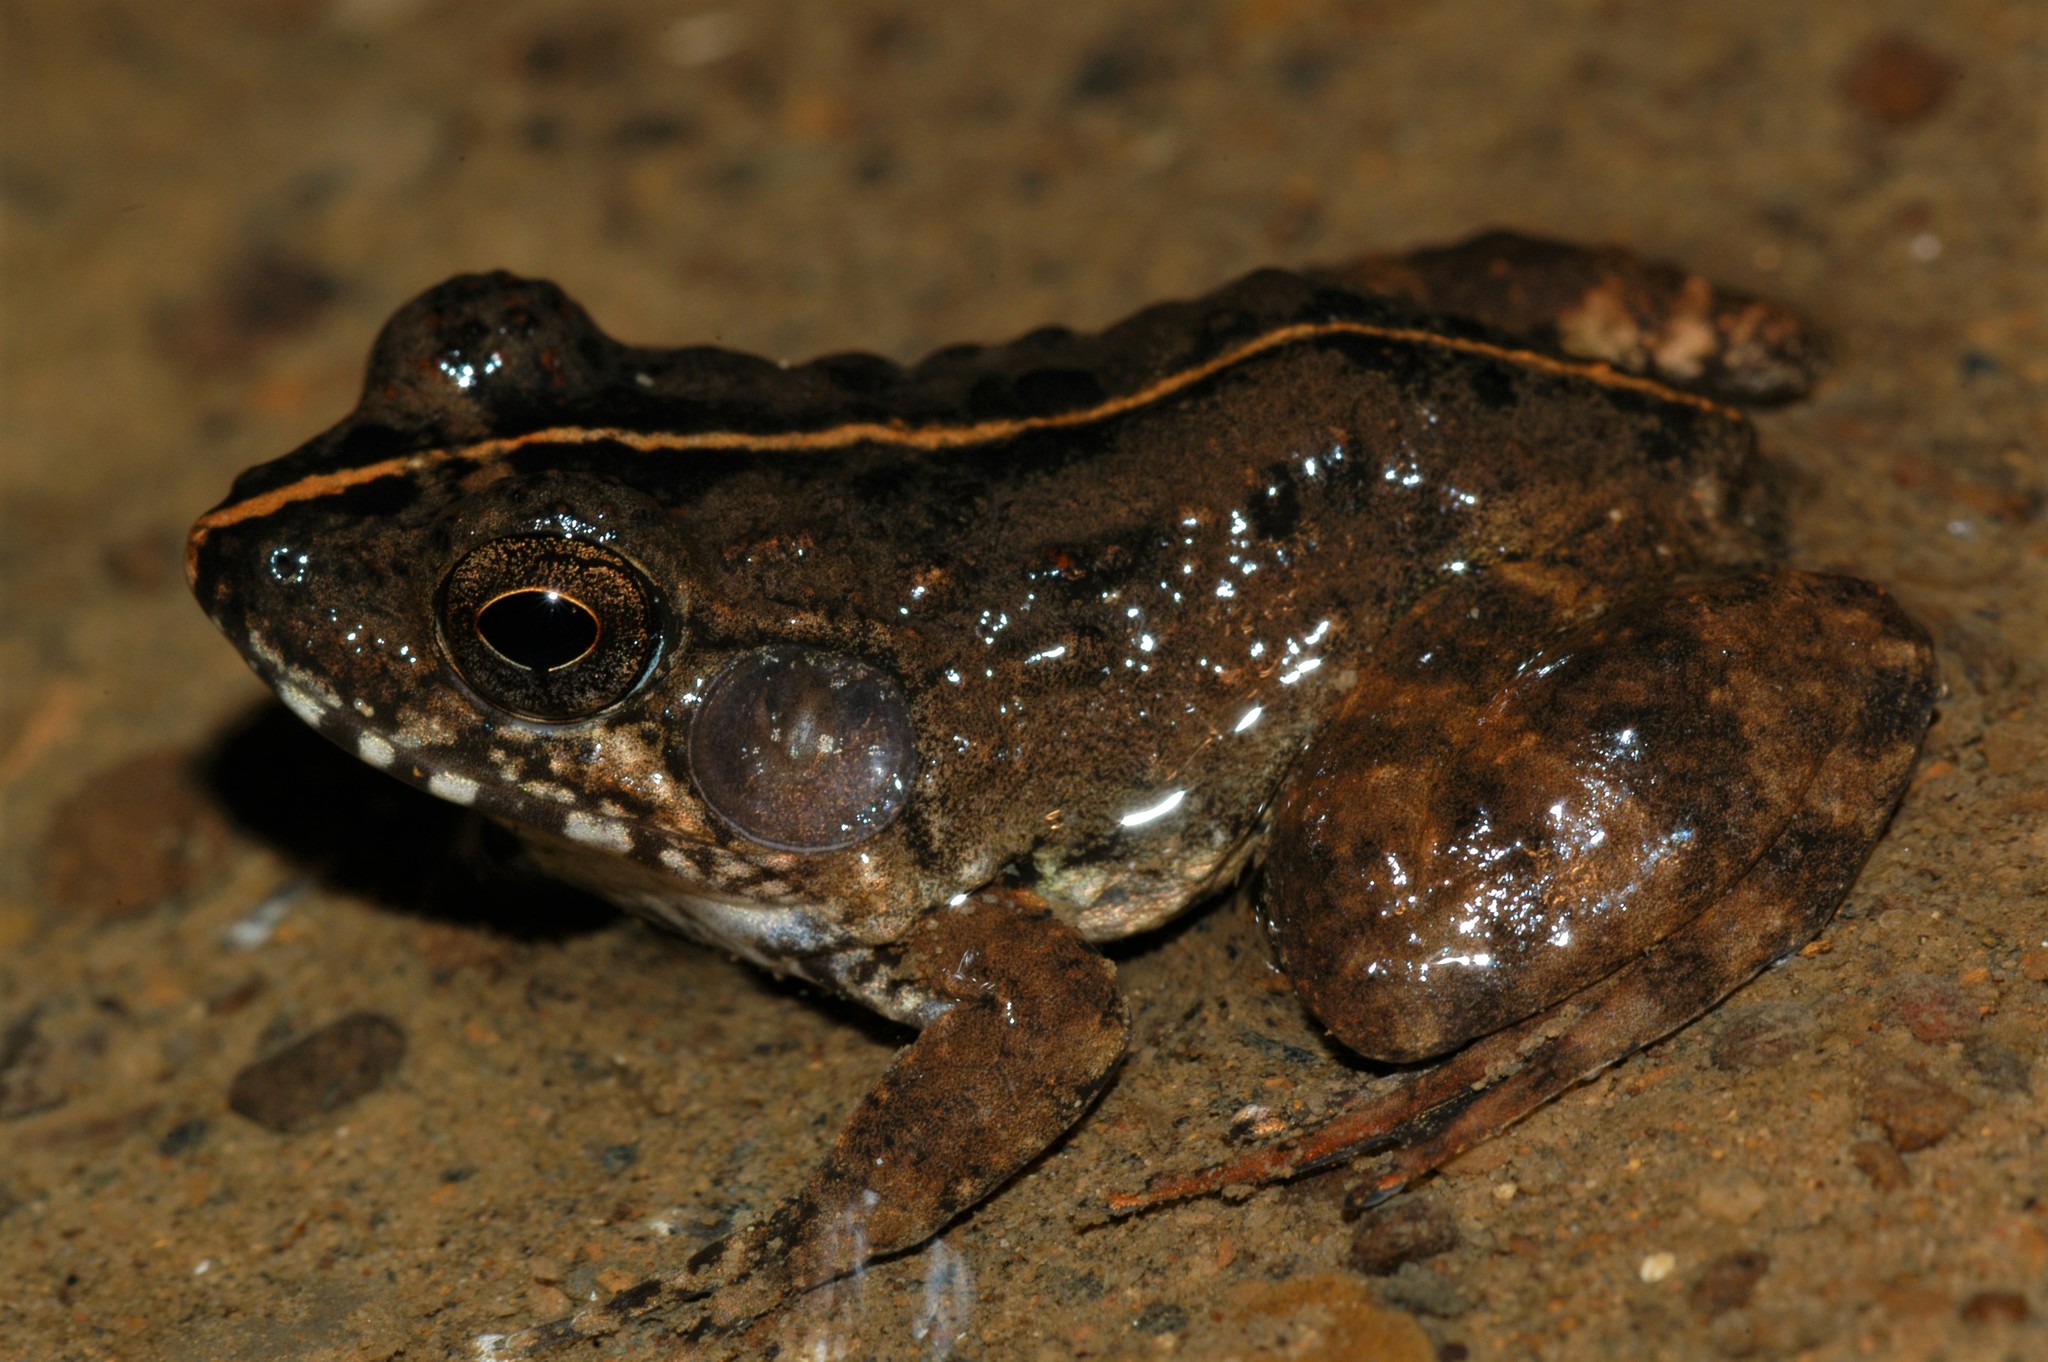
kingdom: Animalia
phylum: Chordata
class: Amphibia
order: Anura
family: Mantellidae
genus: Mantidactylus
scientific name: Mantidactylus bellyi
